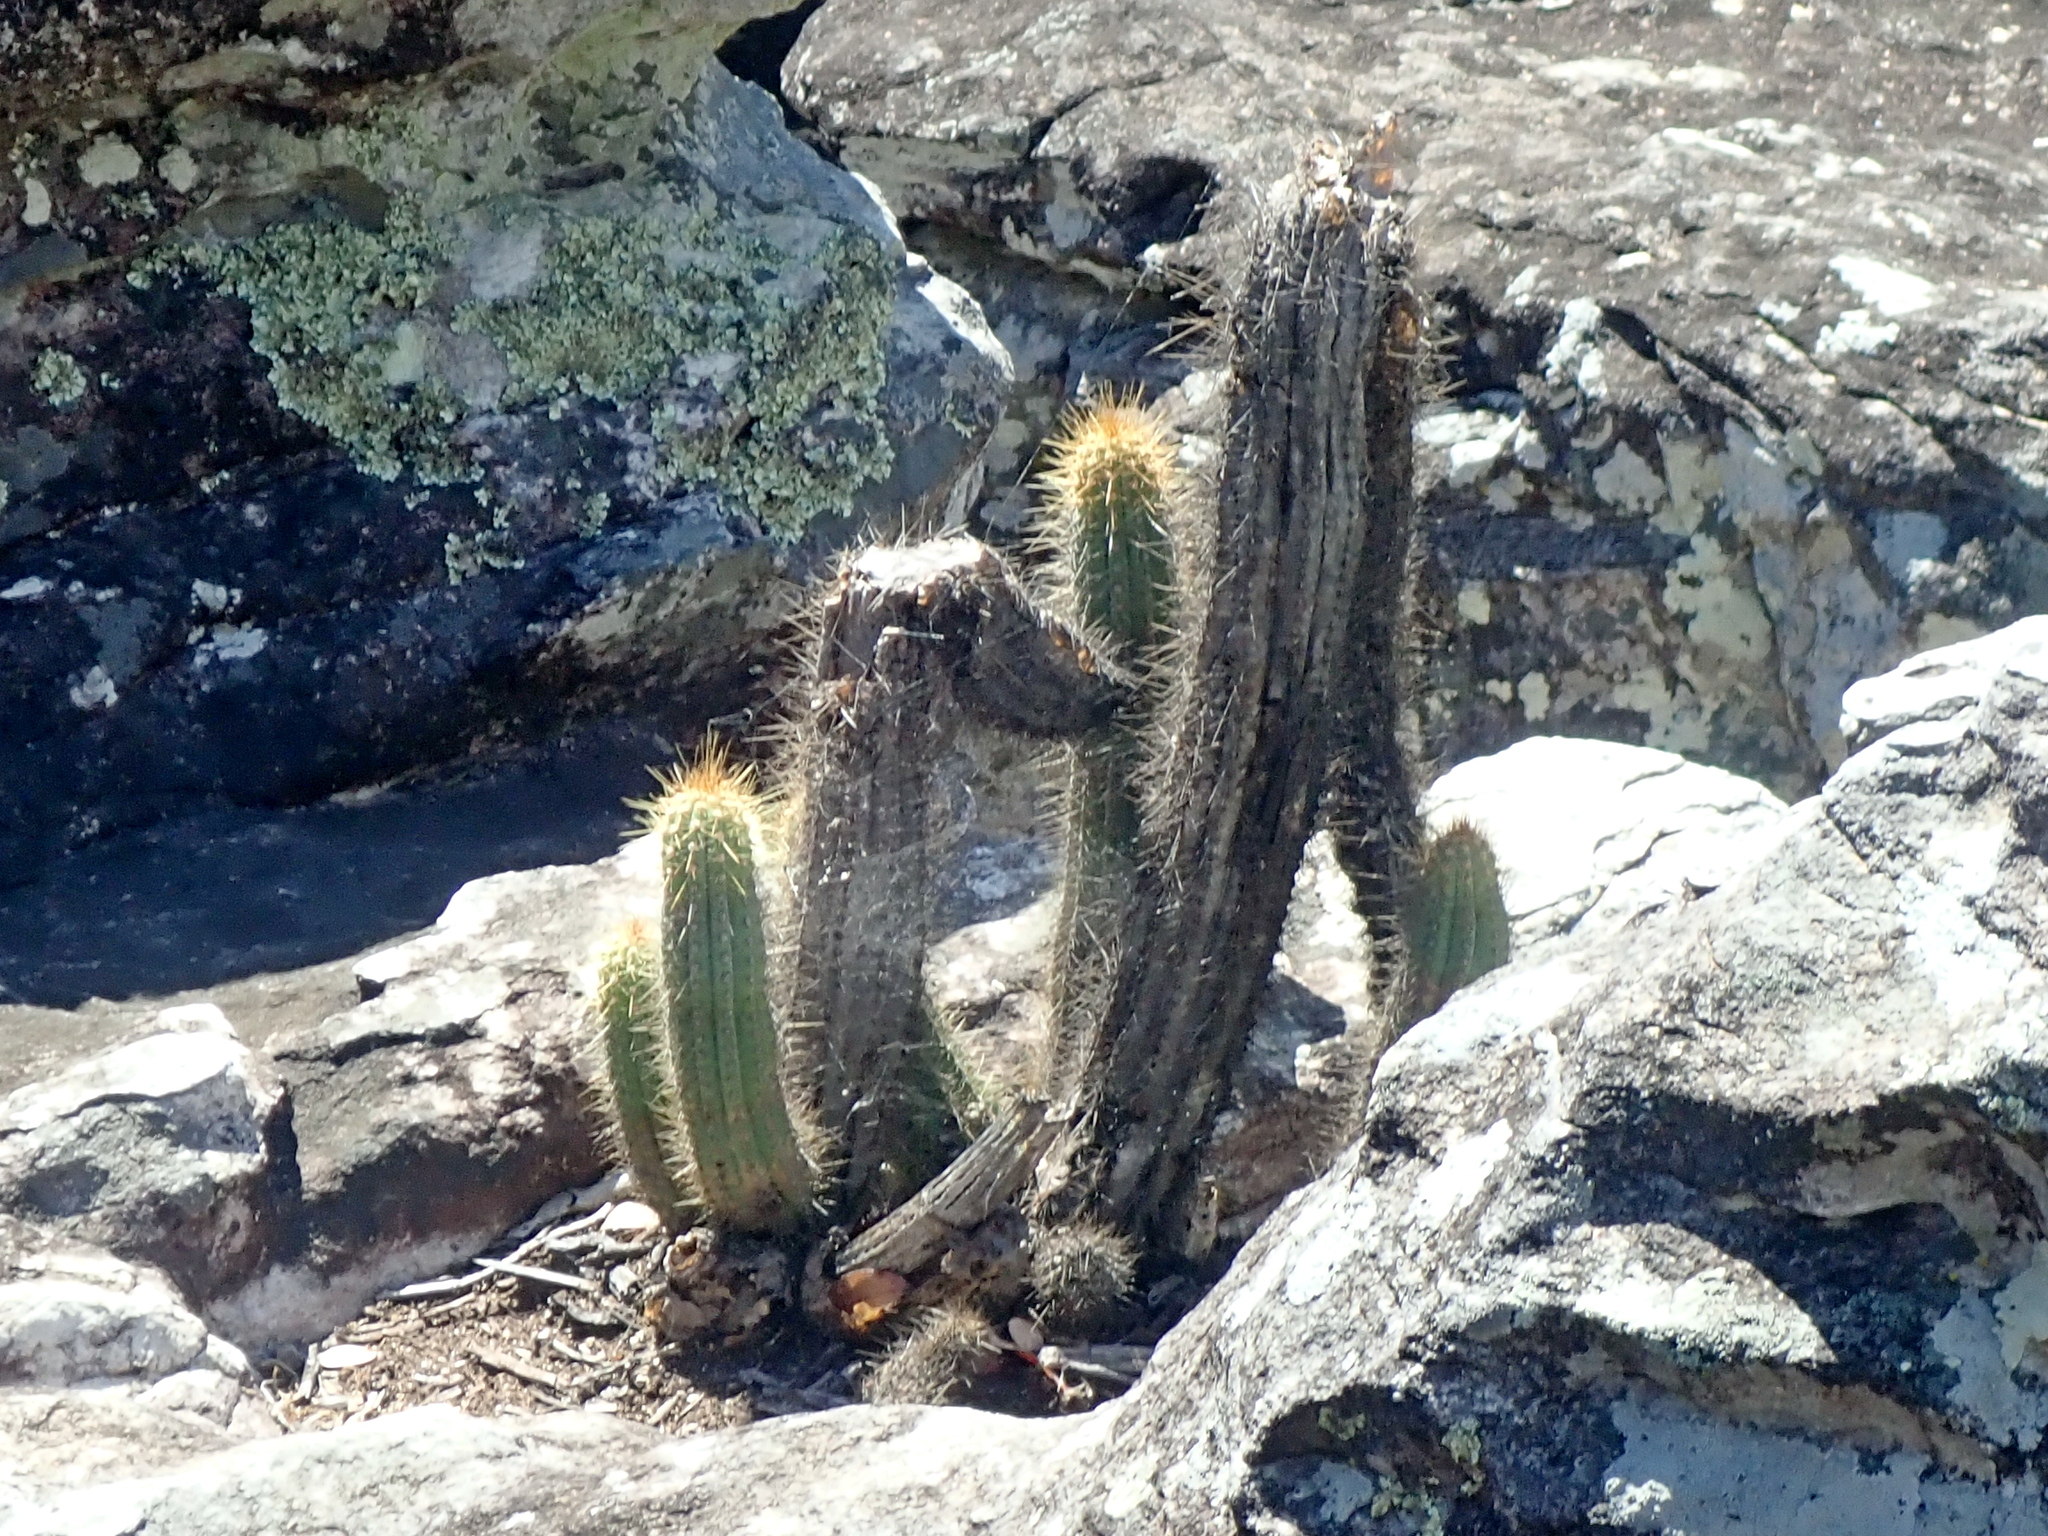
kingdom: Plantae
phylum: Tracheophyta
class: Magnoliopsida
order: Caryophyllales
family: Cactaceae
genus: Pilosocereus
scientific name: Pilosocereus machrisii
